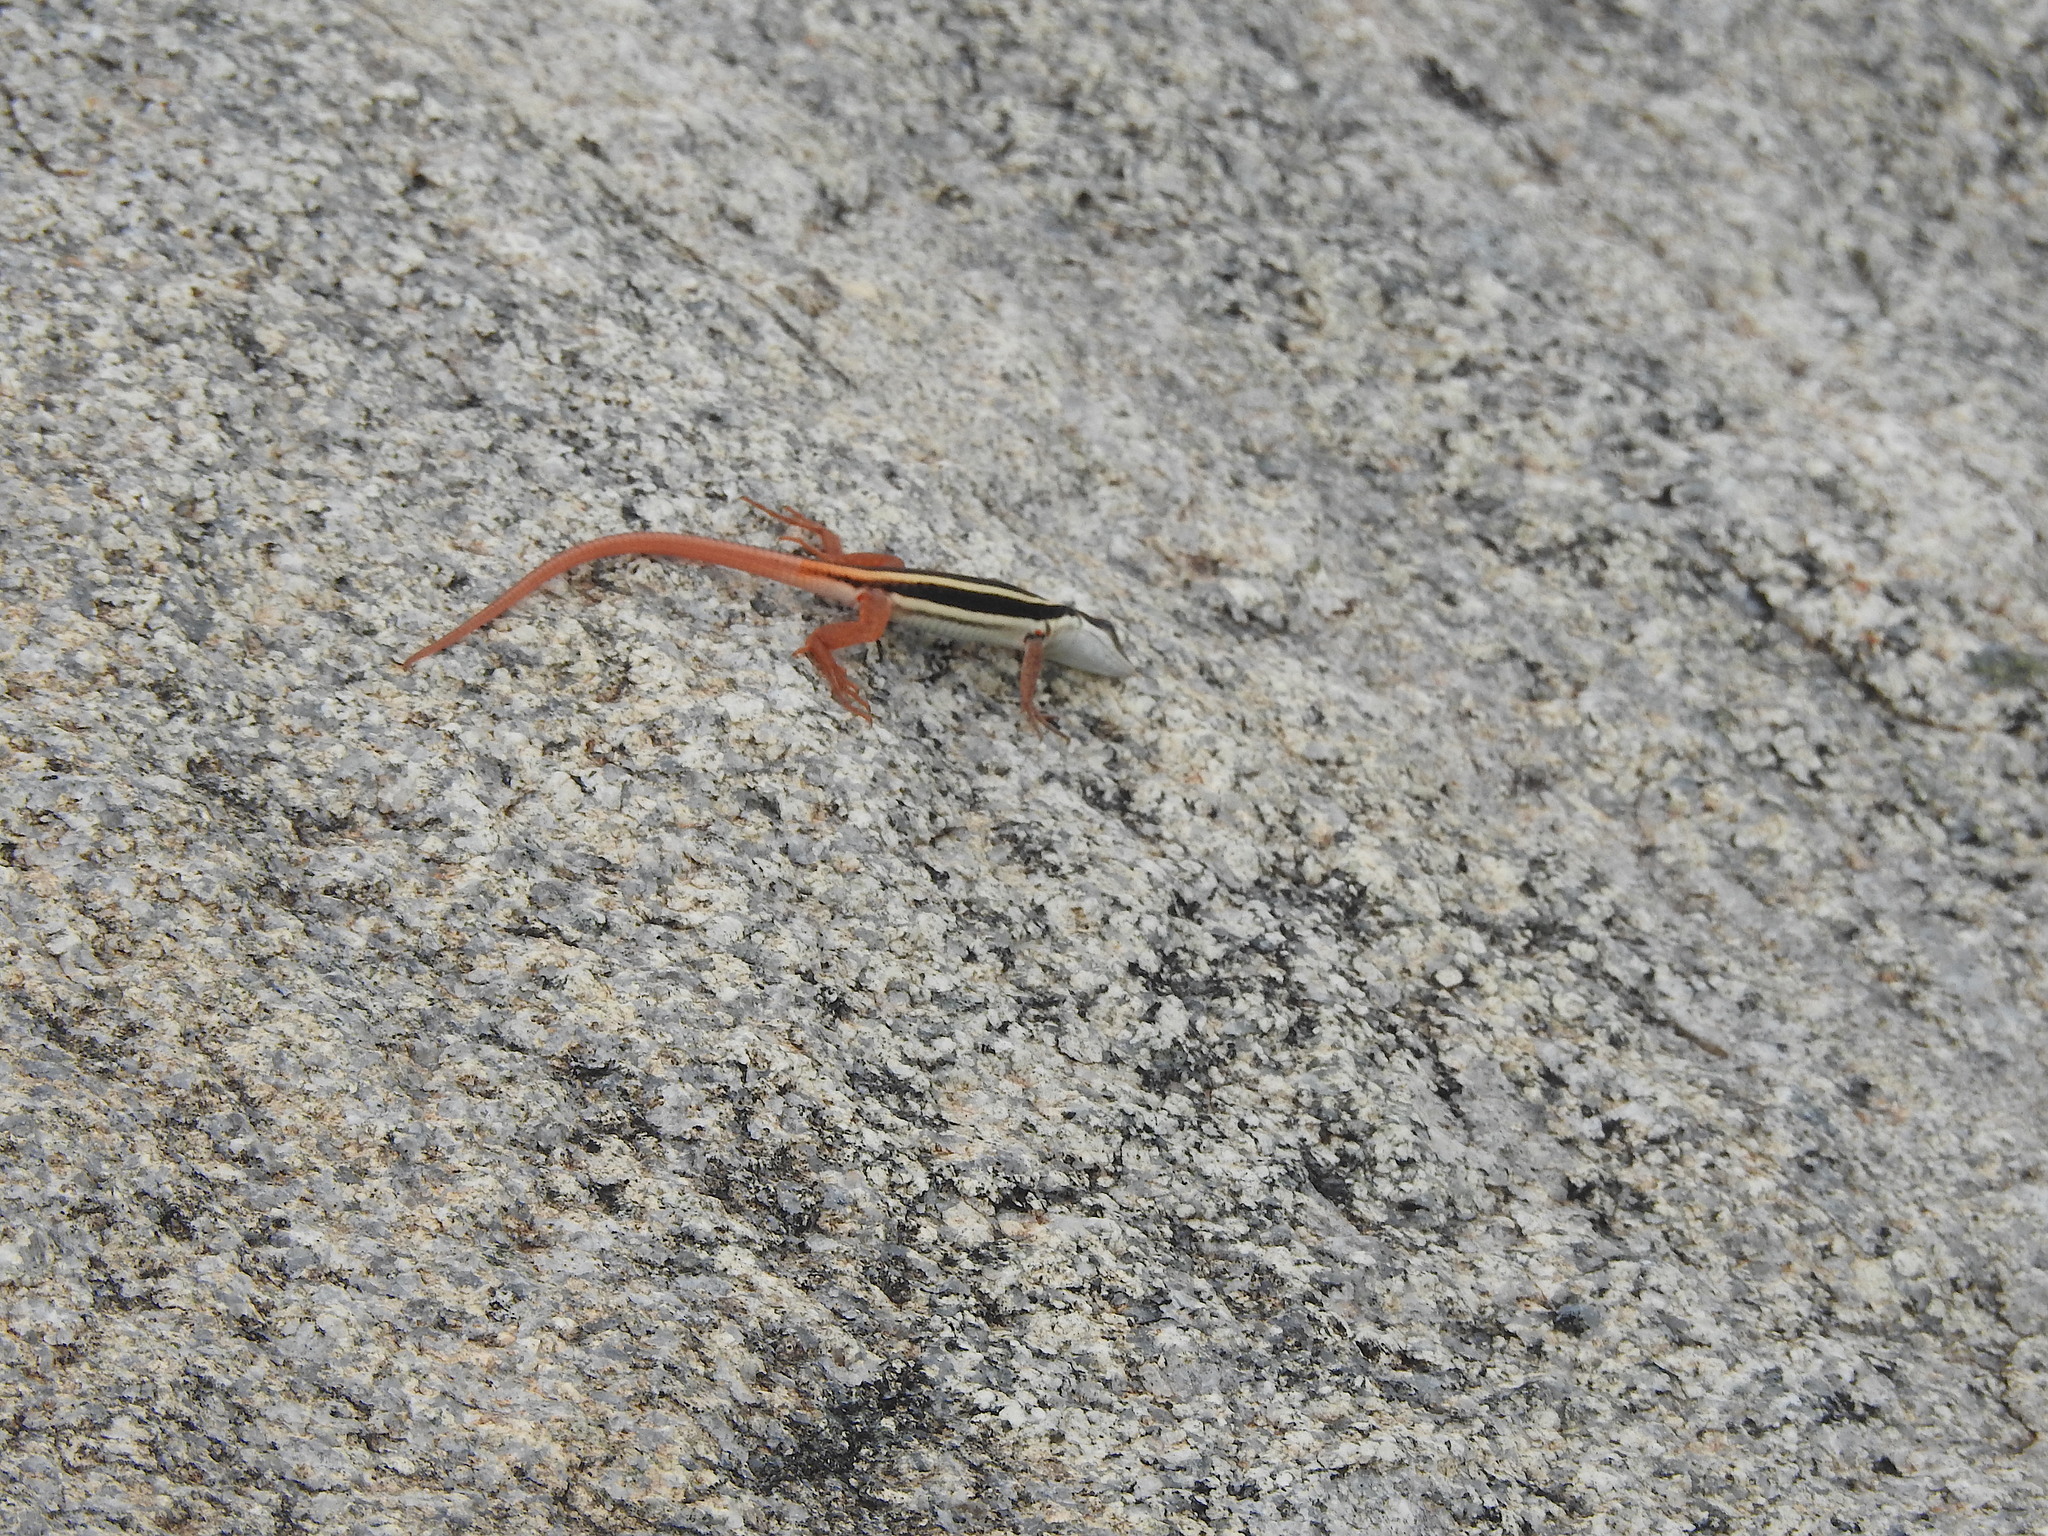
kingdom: Animalia
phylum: Chordata
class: Squamata
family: Lacertidae
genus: Ophisops
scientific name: Ophisops leschenaultii
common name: Leschenault's cabrita
